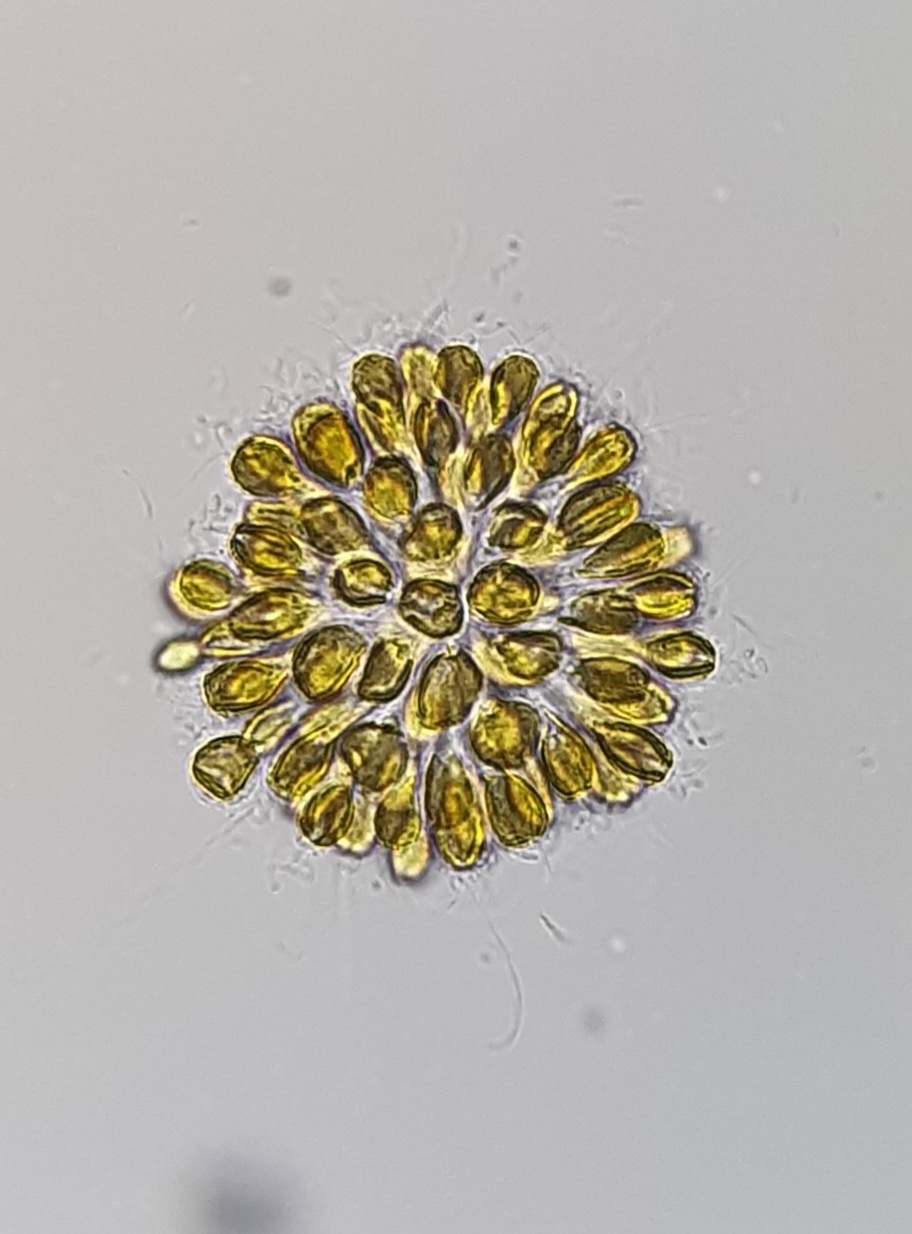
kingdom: Chromista
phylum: Ochrophyta
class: Chrysophyceae
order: Synurales
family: Mallomonadaceae
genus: Synura
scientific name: Synura uvella
